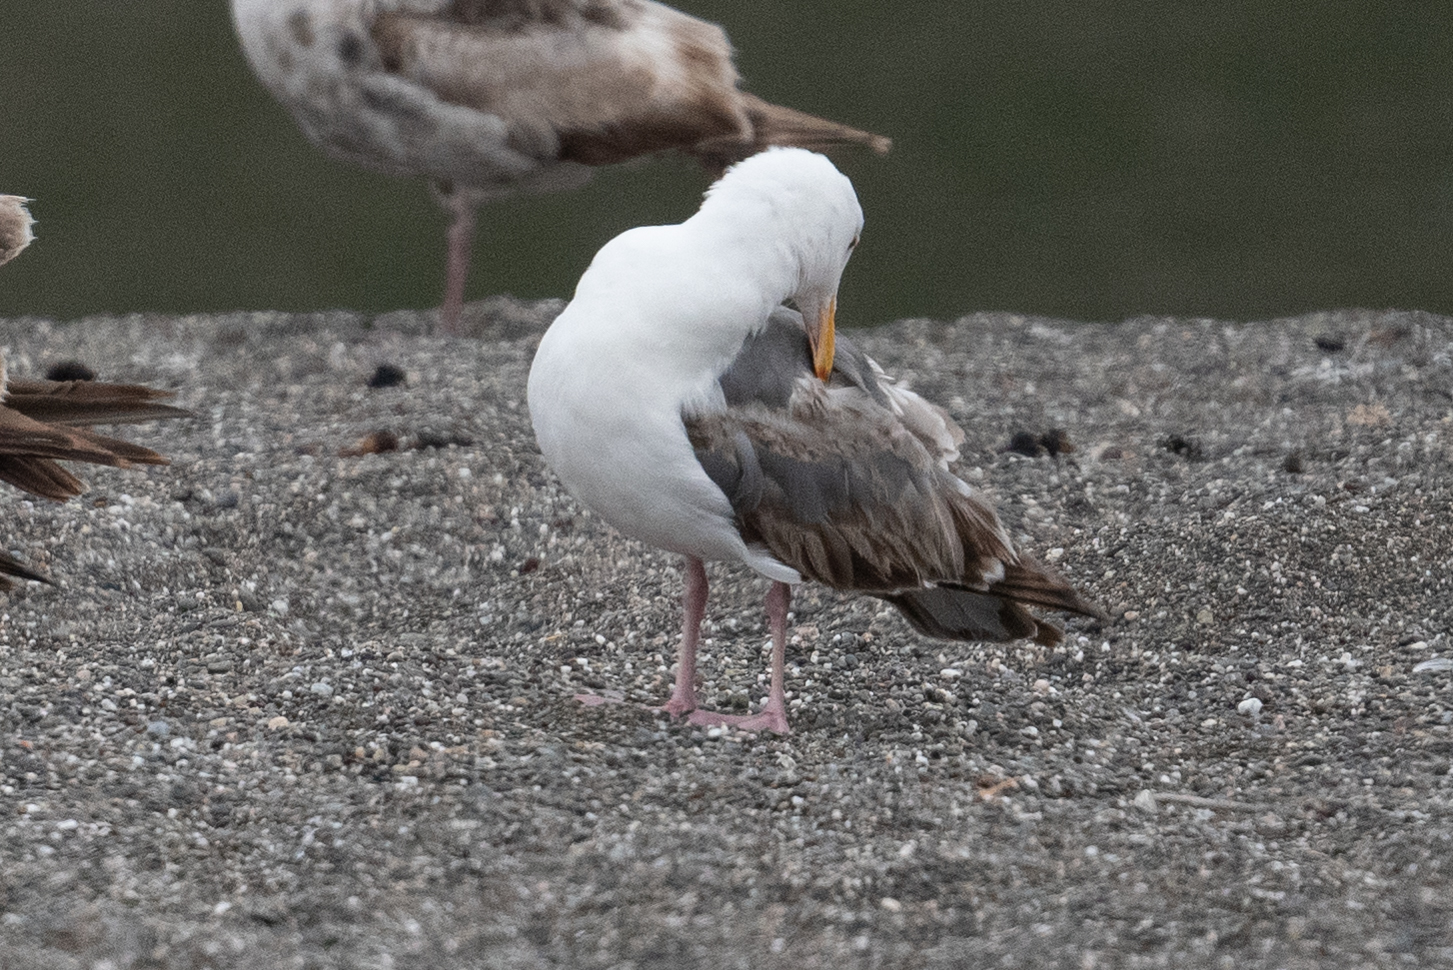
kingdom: Animalia
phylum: Chordata
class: Aves
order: Charadriiformes
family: Laridae
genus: Larus
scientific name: Larus occidentalis
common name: Western gull
